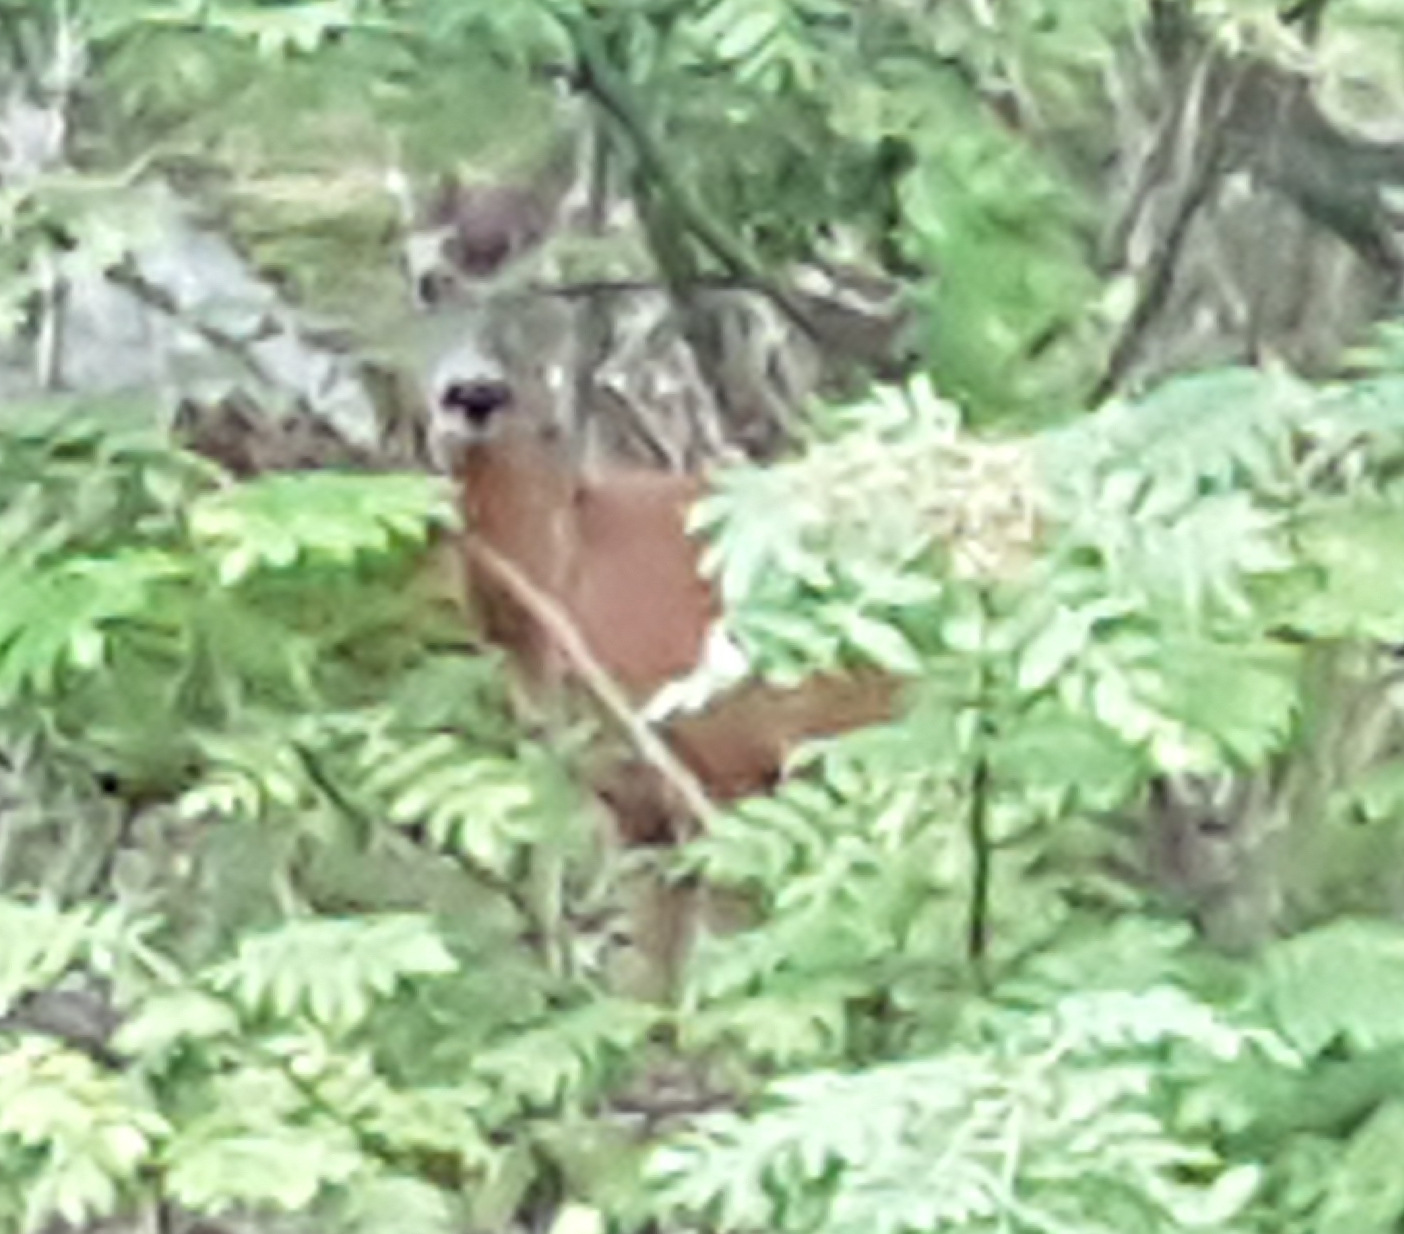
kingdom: Animalia
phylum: Chordata
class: Mammalia
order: Artiodactyla
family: Cervidae
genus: Capreolus
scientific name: Capreolus capreolus
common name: Western roe deer
